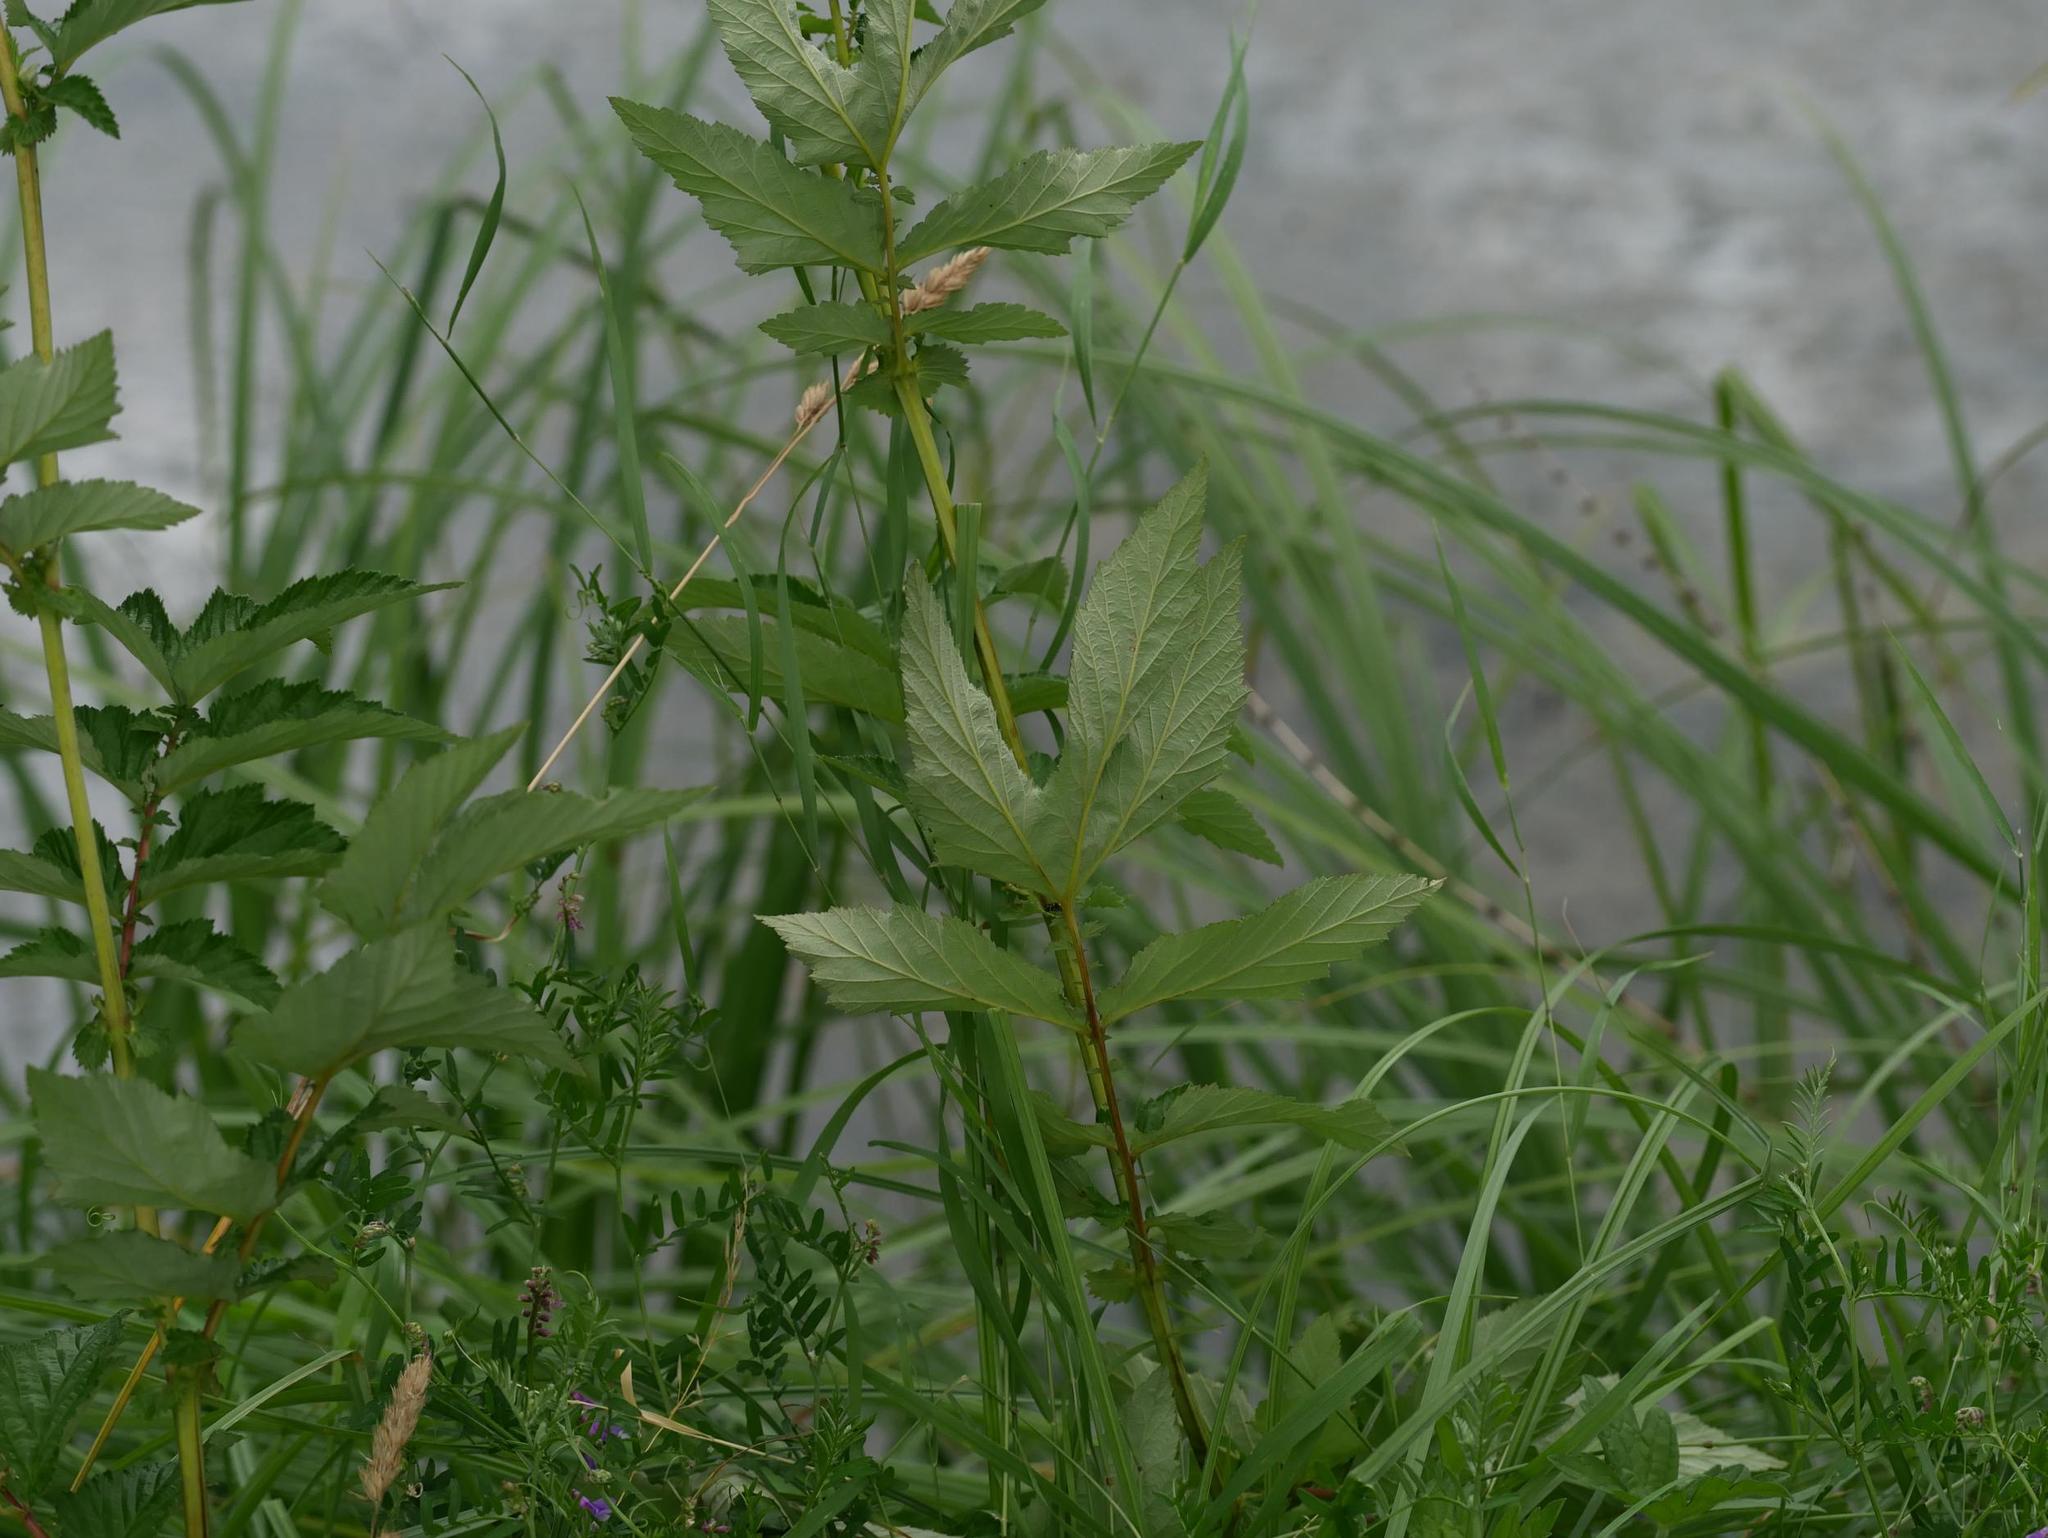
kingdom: Plantae
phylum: Tracheophyta
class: Magnoliopsida
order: Rosales
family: Rosaceae
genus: Filipendula
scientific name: Filipendula ulmaria
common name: Meadowsweet
